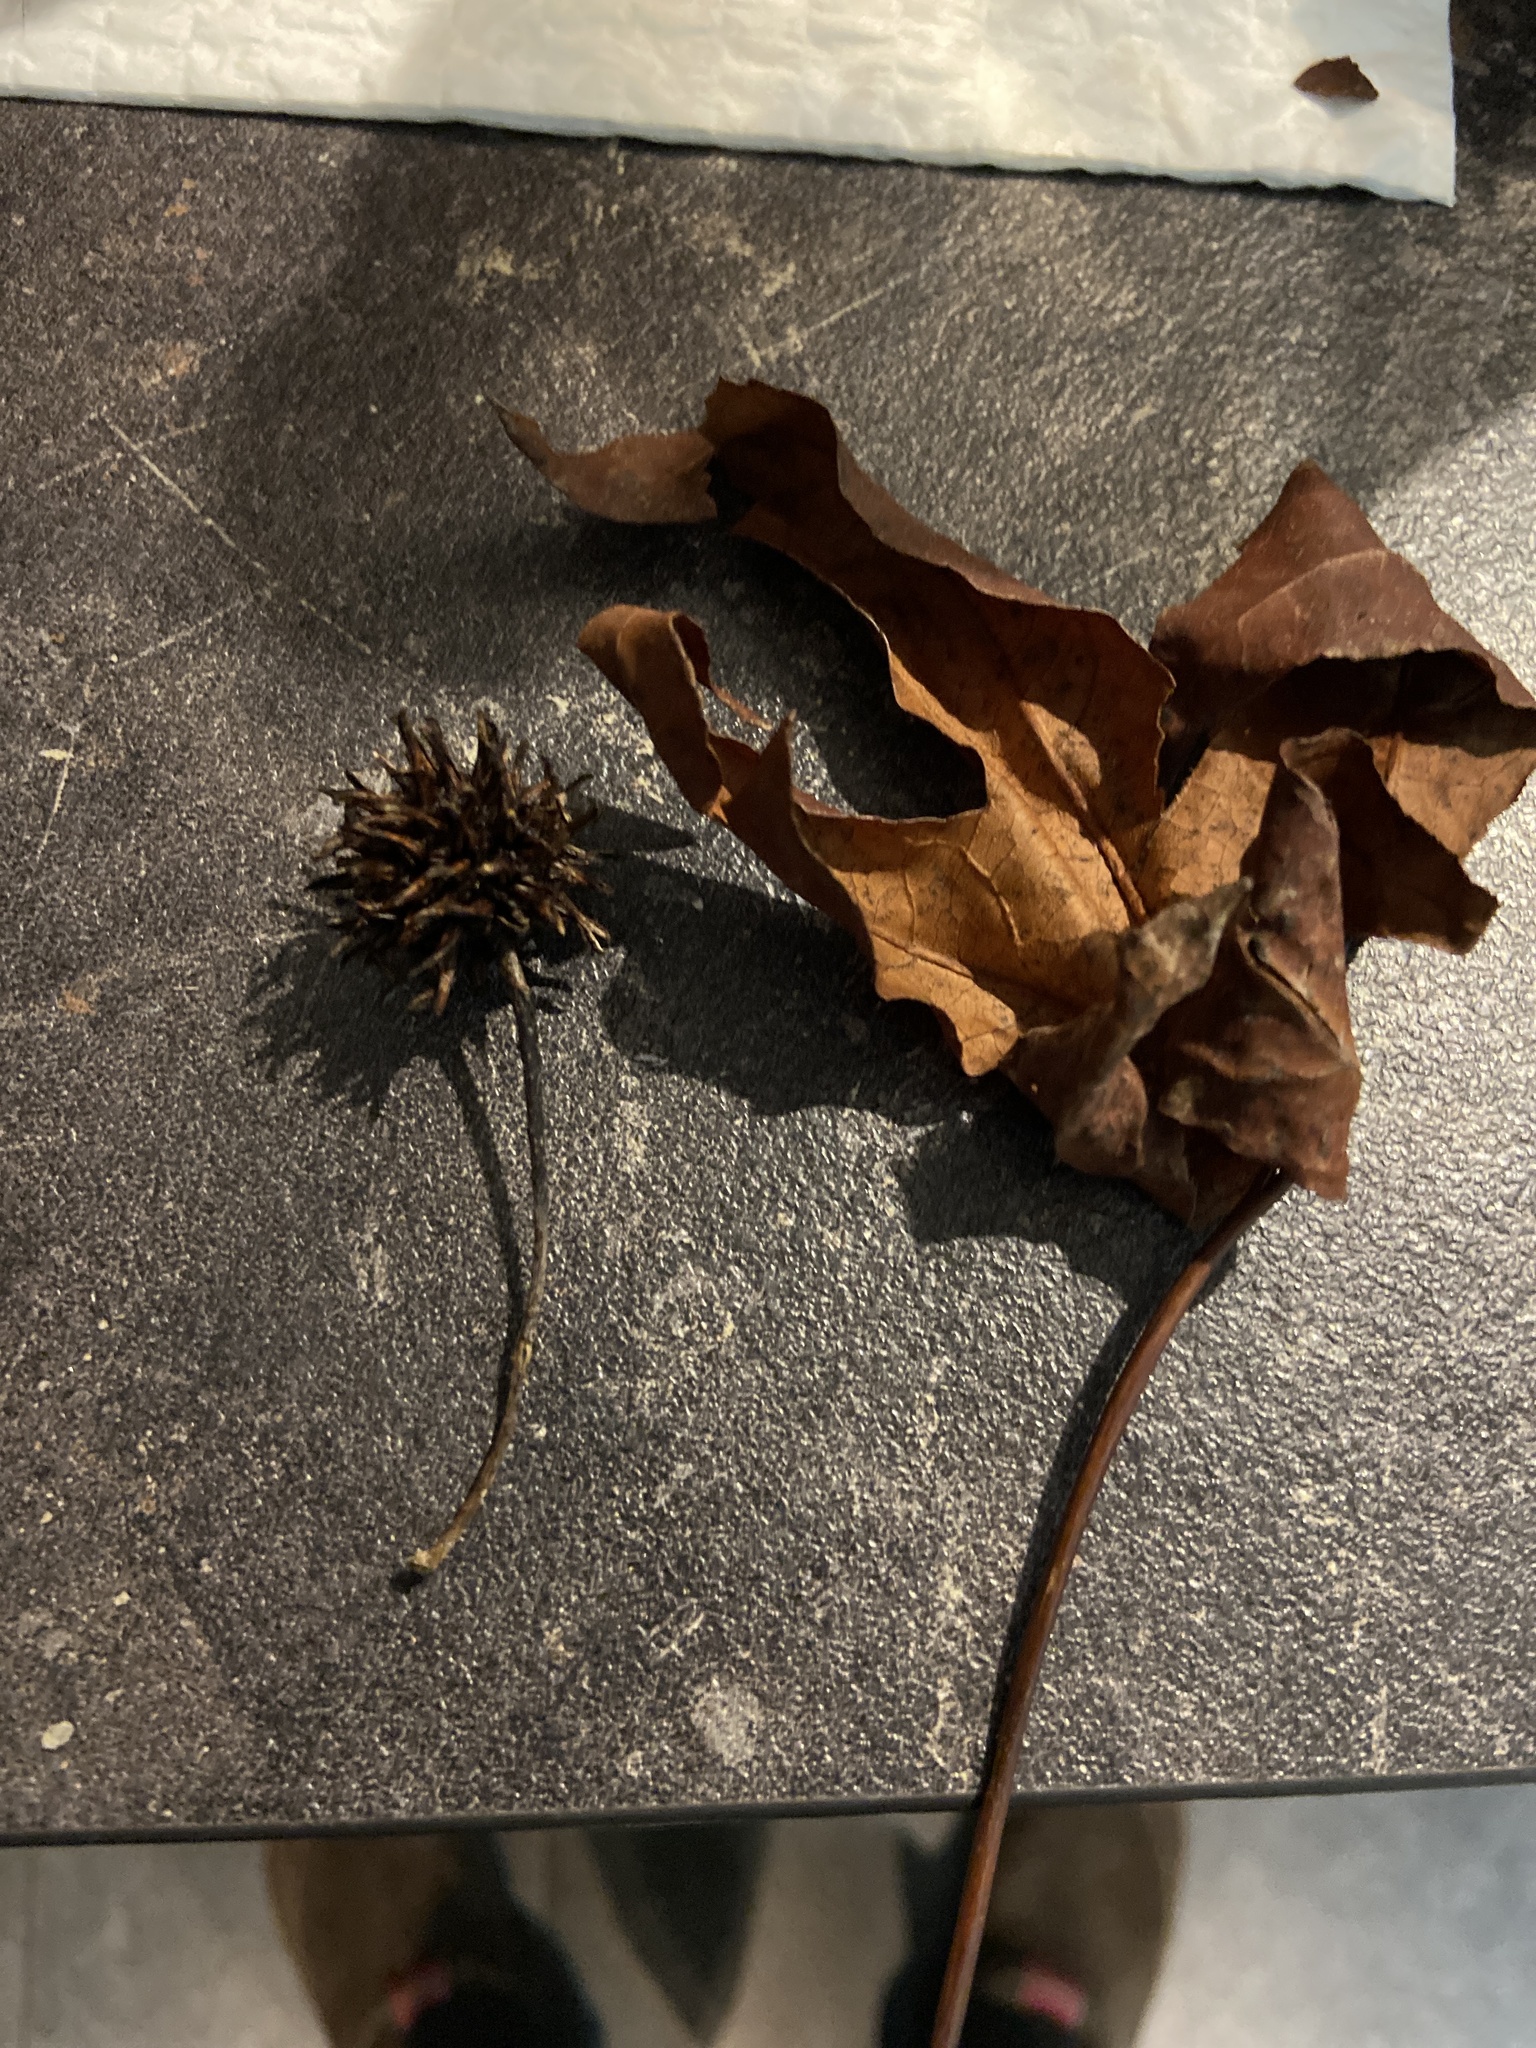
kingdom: Plantae
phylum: Tracheophyta
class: Magnoliopsida
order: Saxifragales
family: Altingiaceae
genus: Liquidambar
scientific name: Liquidambar styraciflua
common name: Sweet gum
